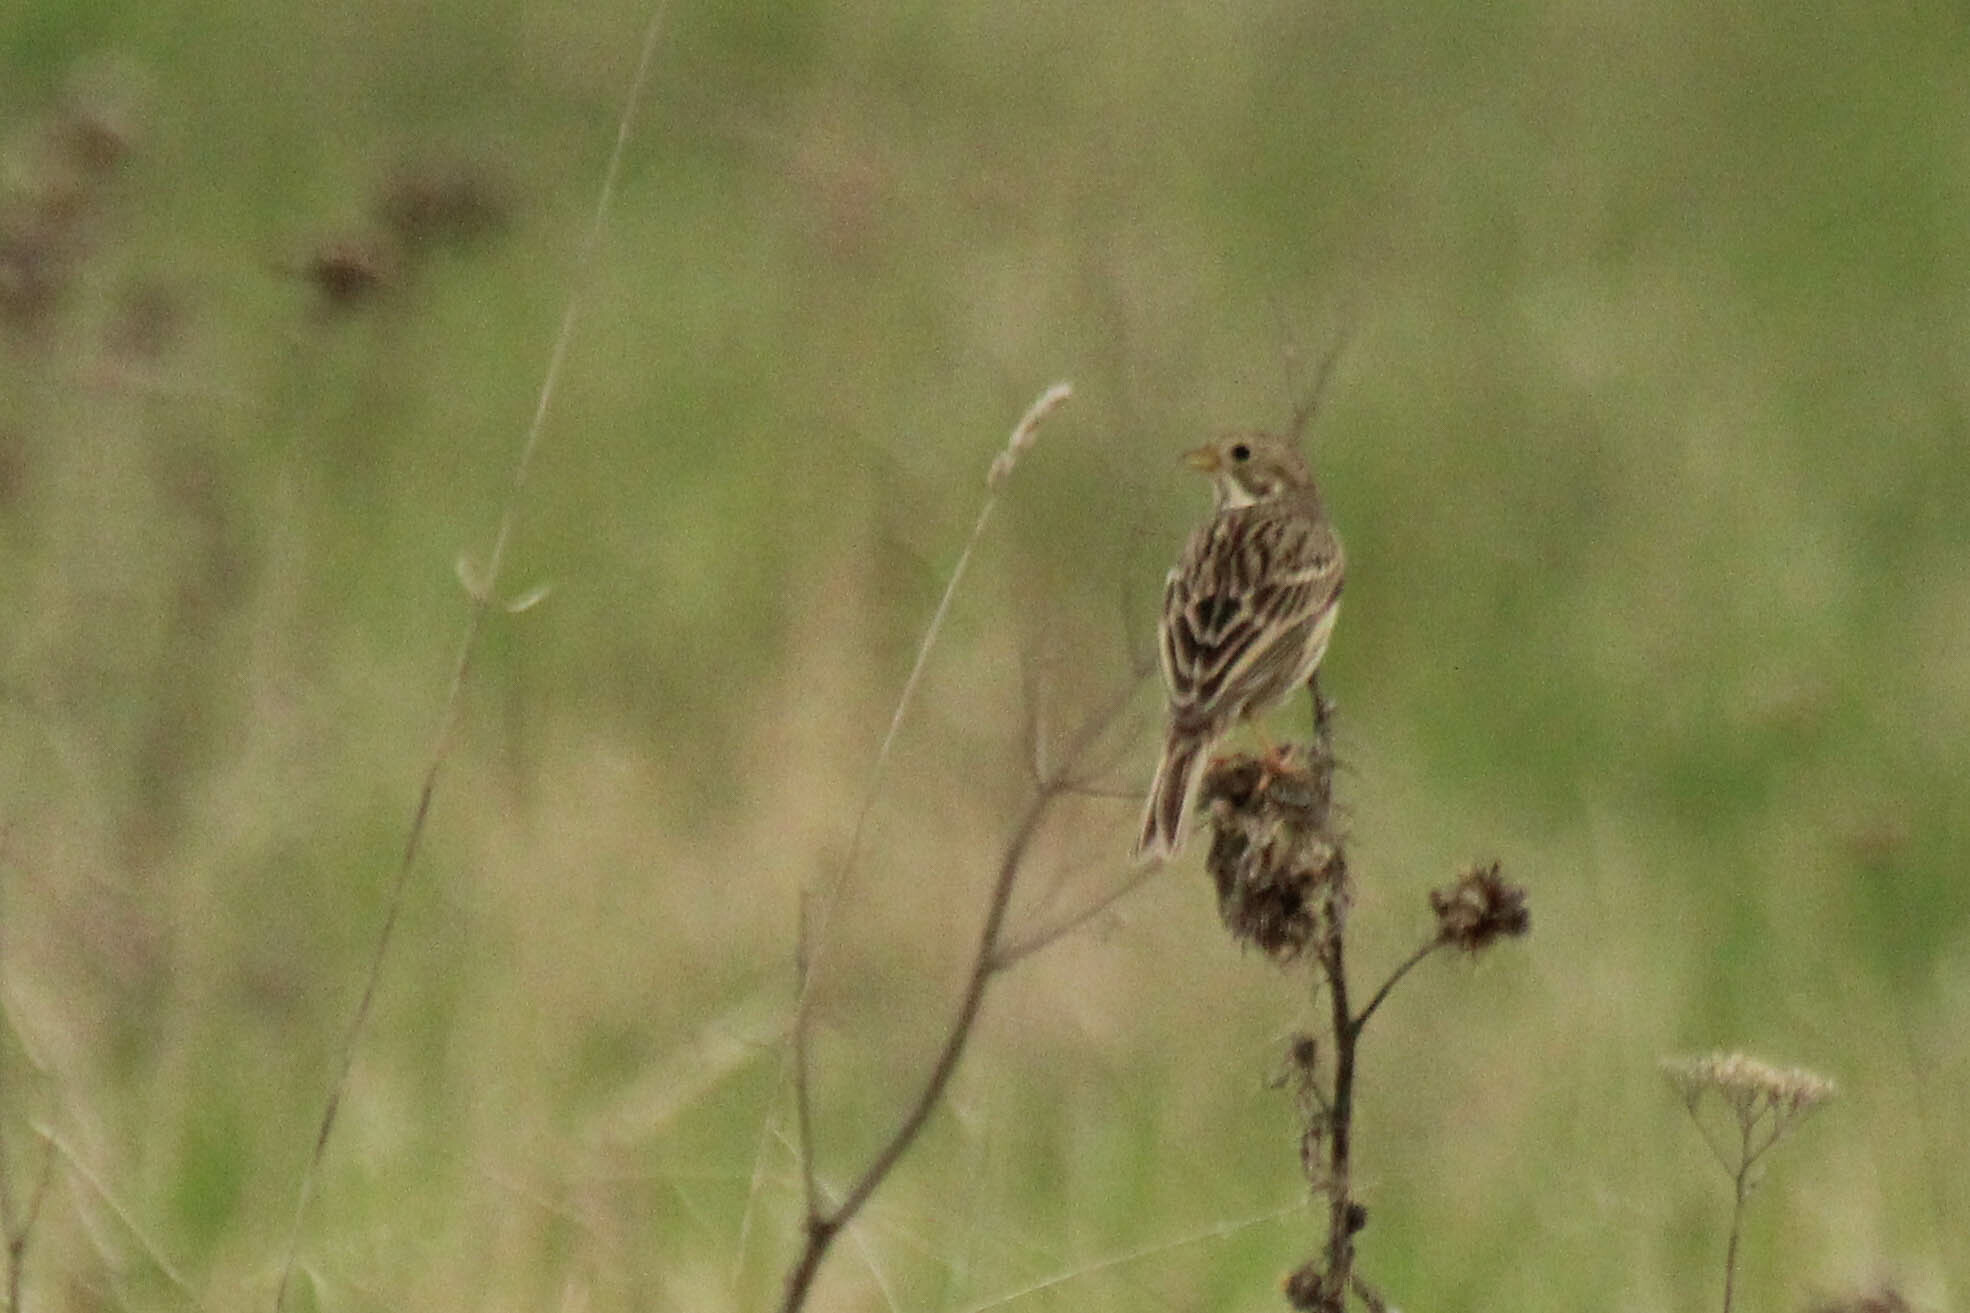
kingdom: Animalia
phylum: Chordata
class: Aves
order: Passeriformes
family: Emberizidae
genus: Emberiza
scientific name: Emberiza calandra
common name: Corn bunting
